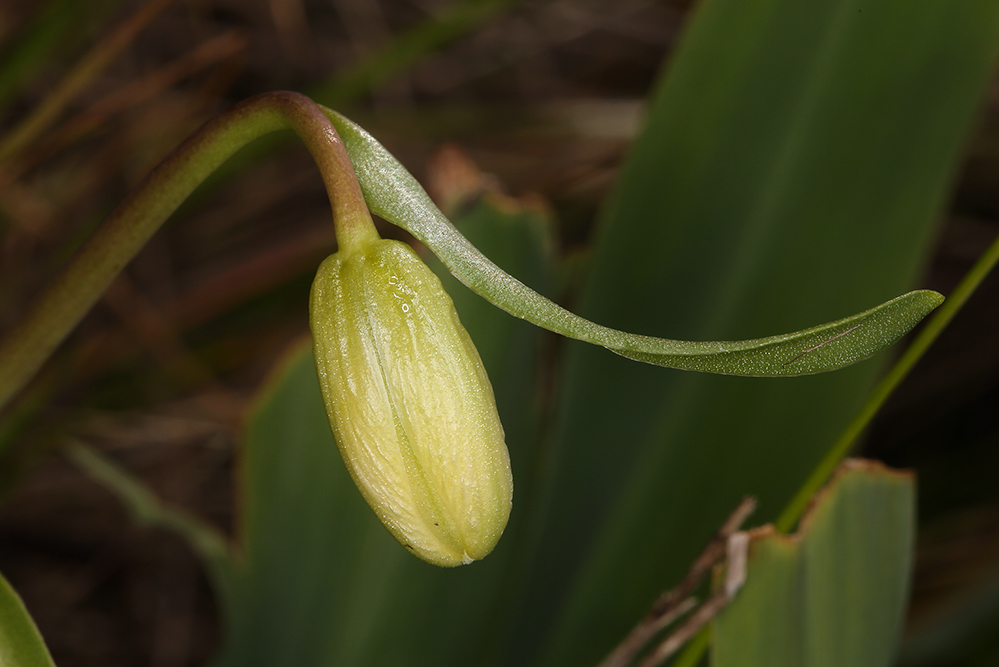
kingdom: Plantae
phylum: Tracheophyta
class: Liliopsida
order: Liliales
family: Liliaceae
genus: Fritillaria
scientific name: Fritillaria liliacea
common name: Fragrant fritillary
